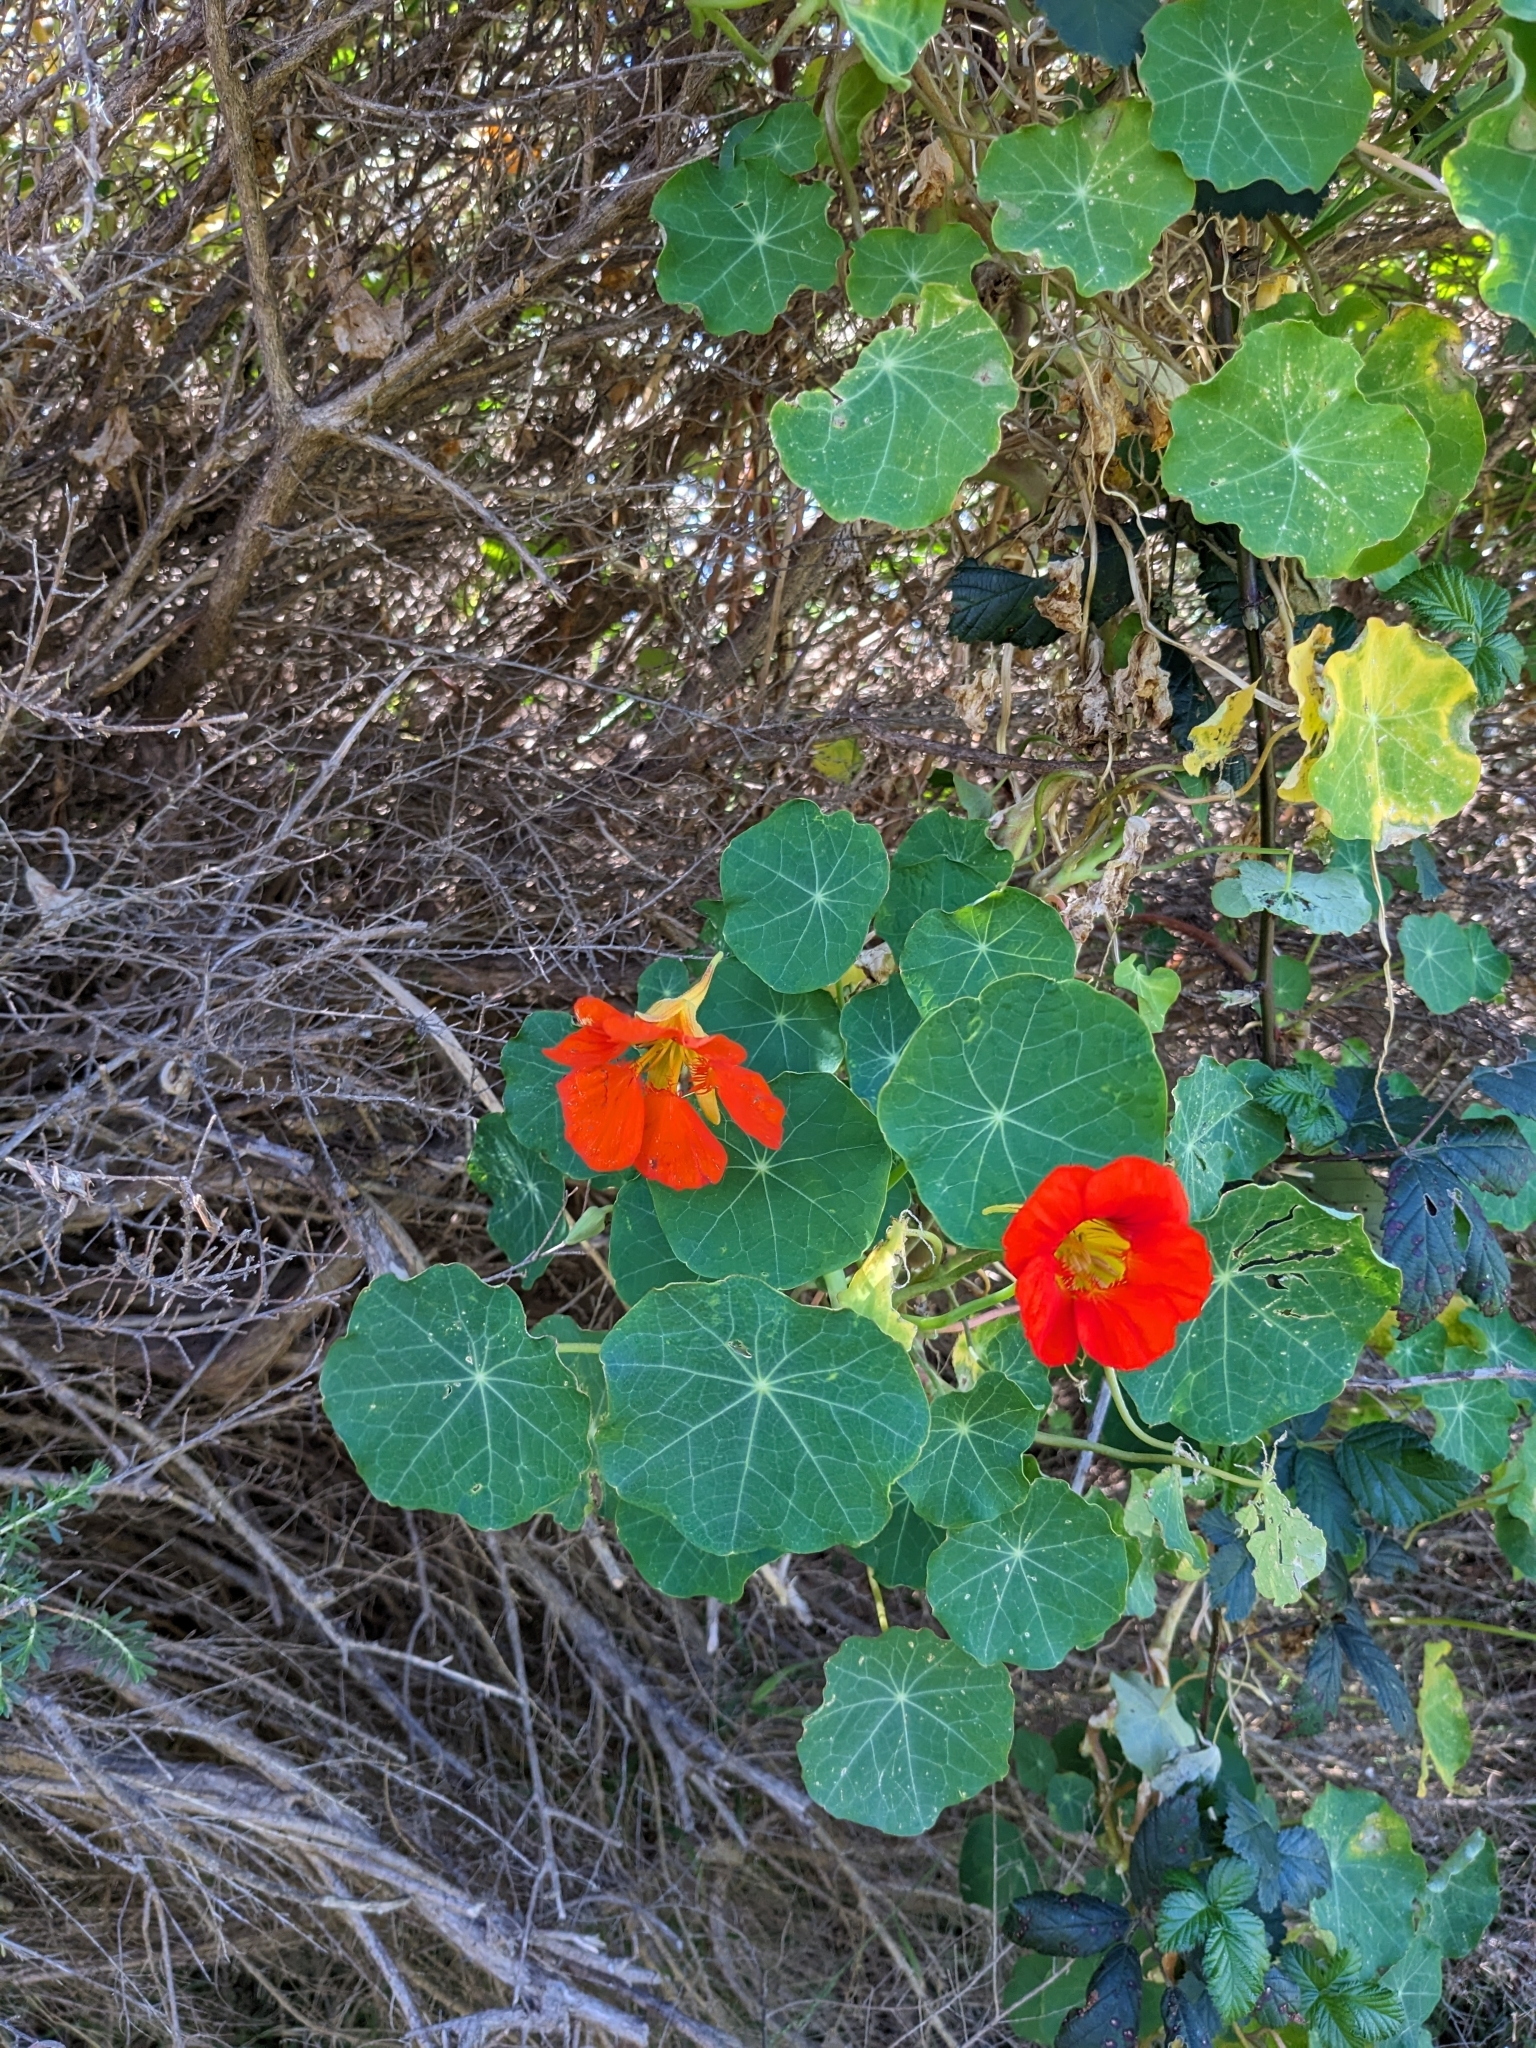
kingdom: Plantae
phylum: Tracheophyta
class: Magnoliopsida
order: Brassicales
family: Tropaeolaceae
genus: Tropaeolum
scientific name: Tropaeolum majus
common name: Nasturtium
